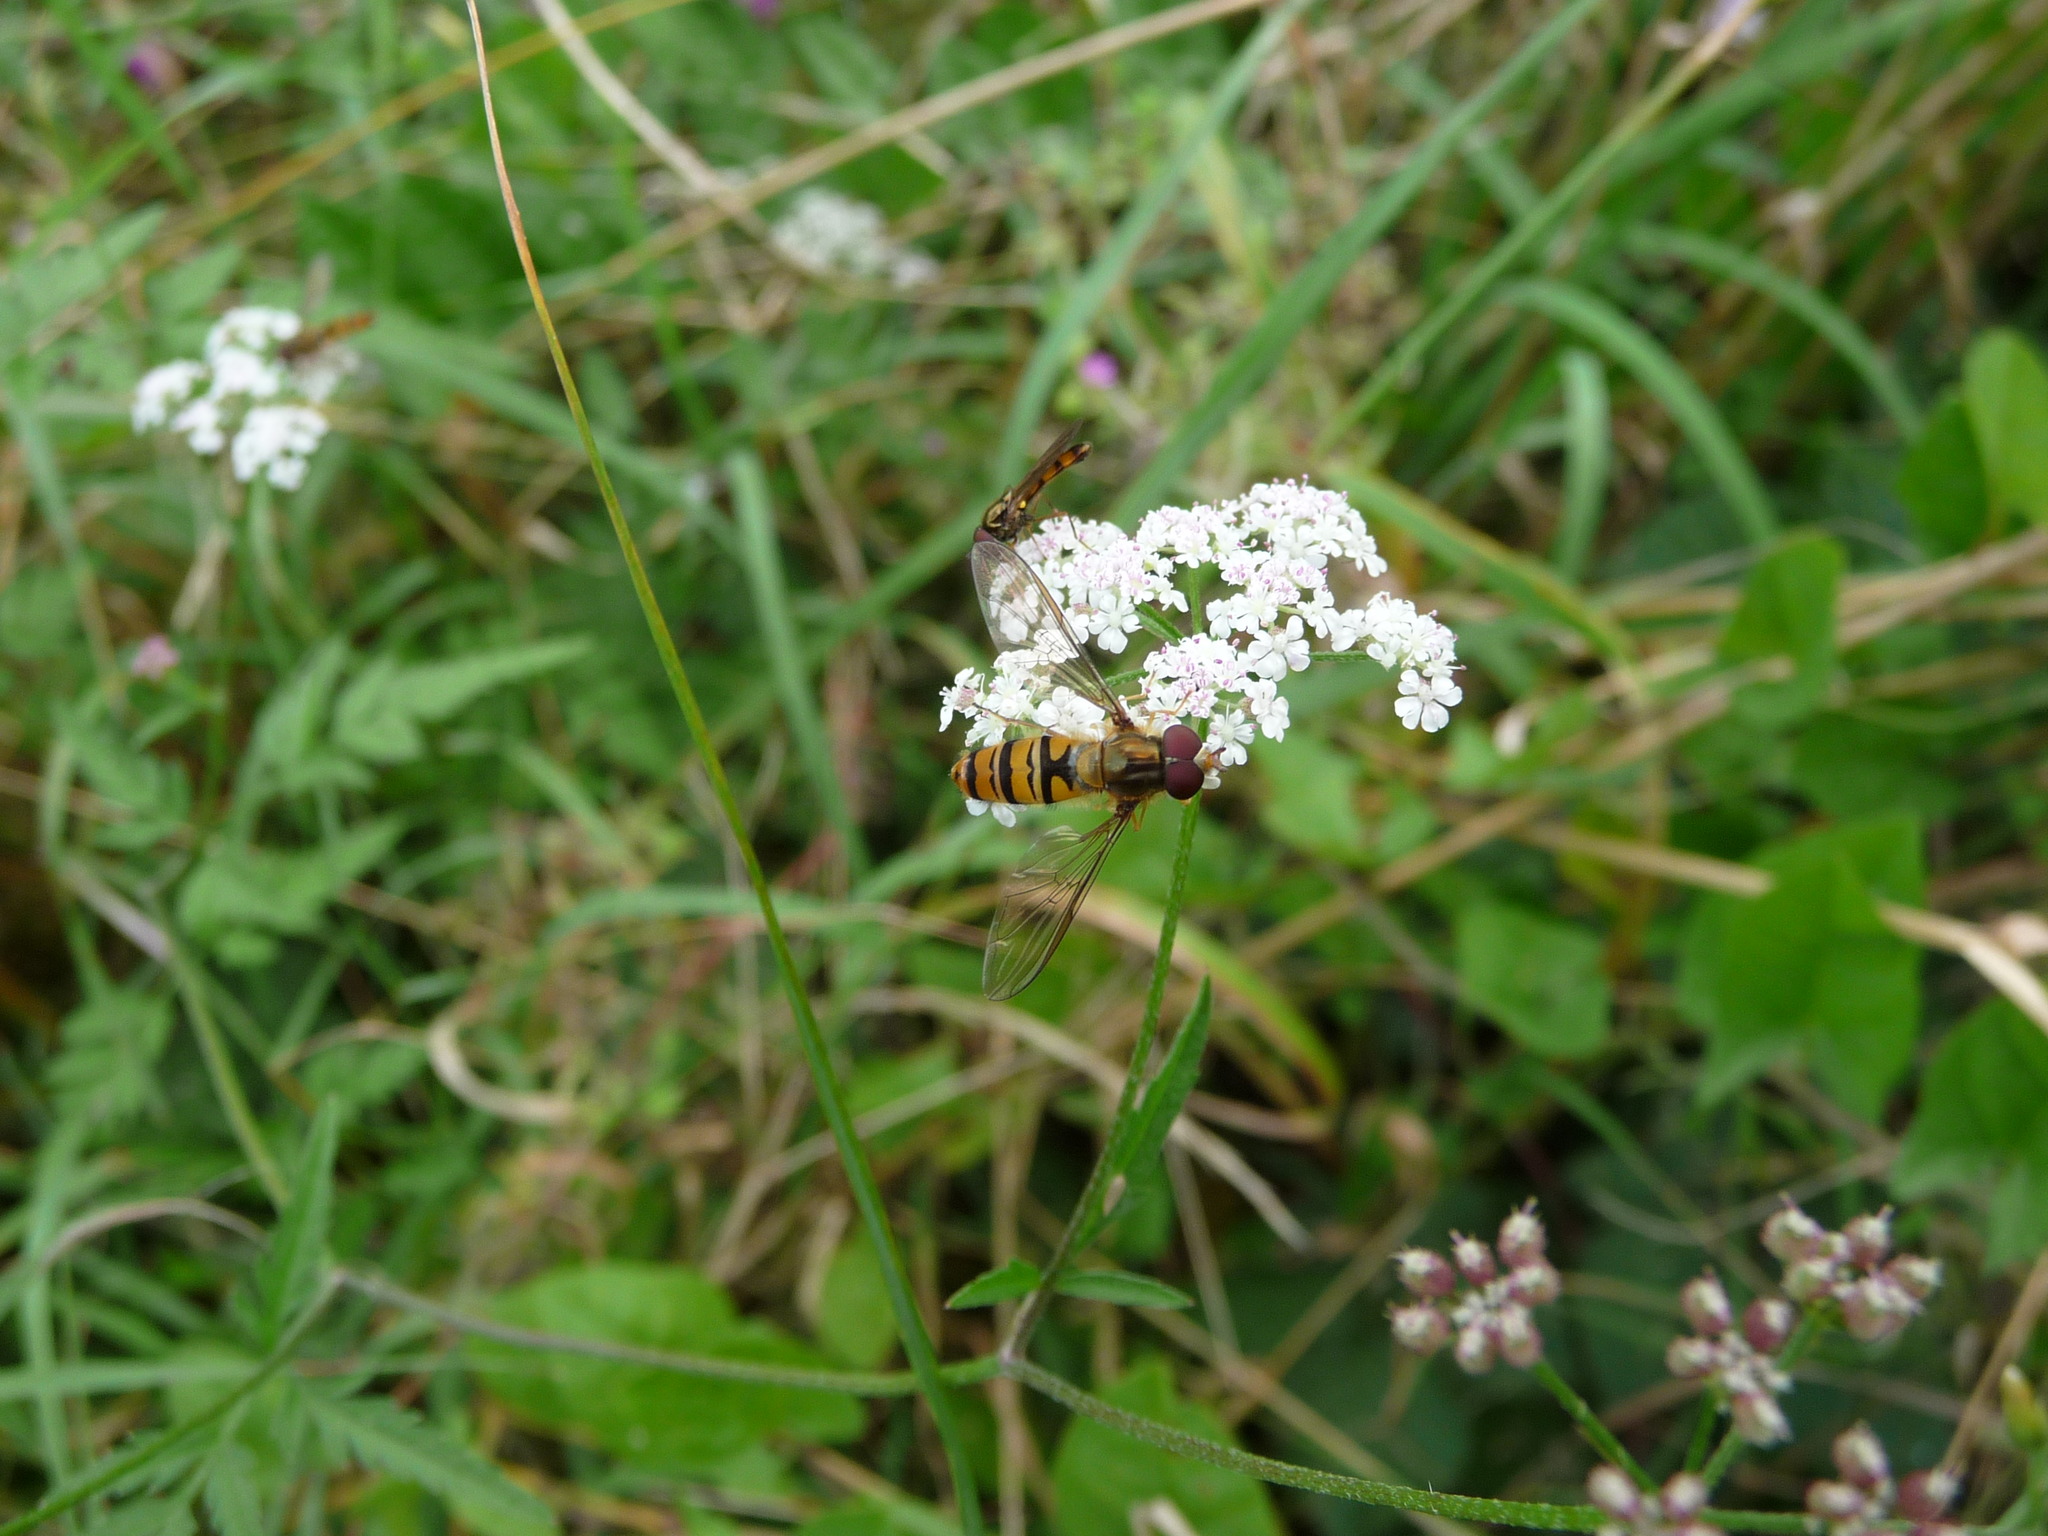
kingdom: Animalia
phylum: Arthropoda
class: Insecta
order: Diptera
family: Syrphidae
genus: Episyrphus
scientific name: Episyrphus balteatus
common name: Marmalade hoverfly
